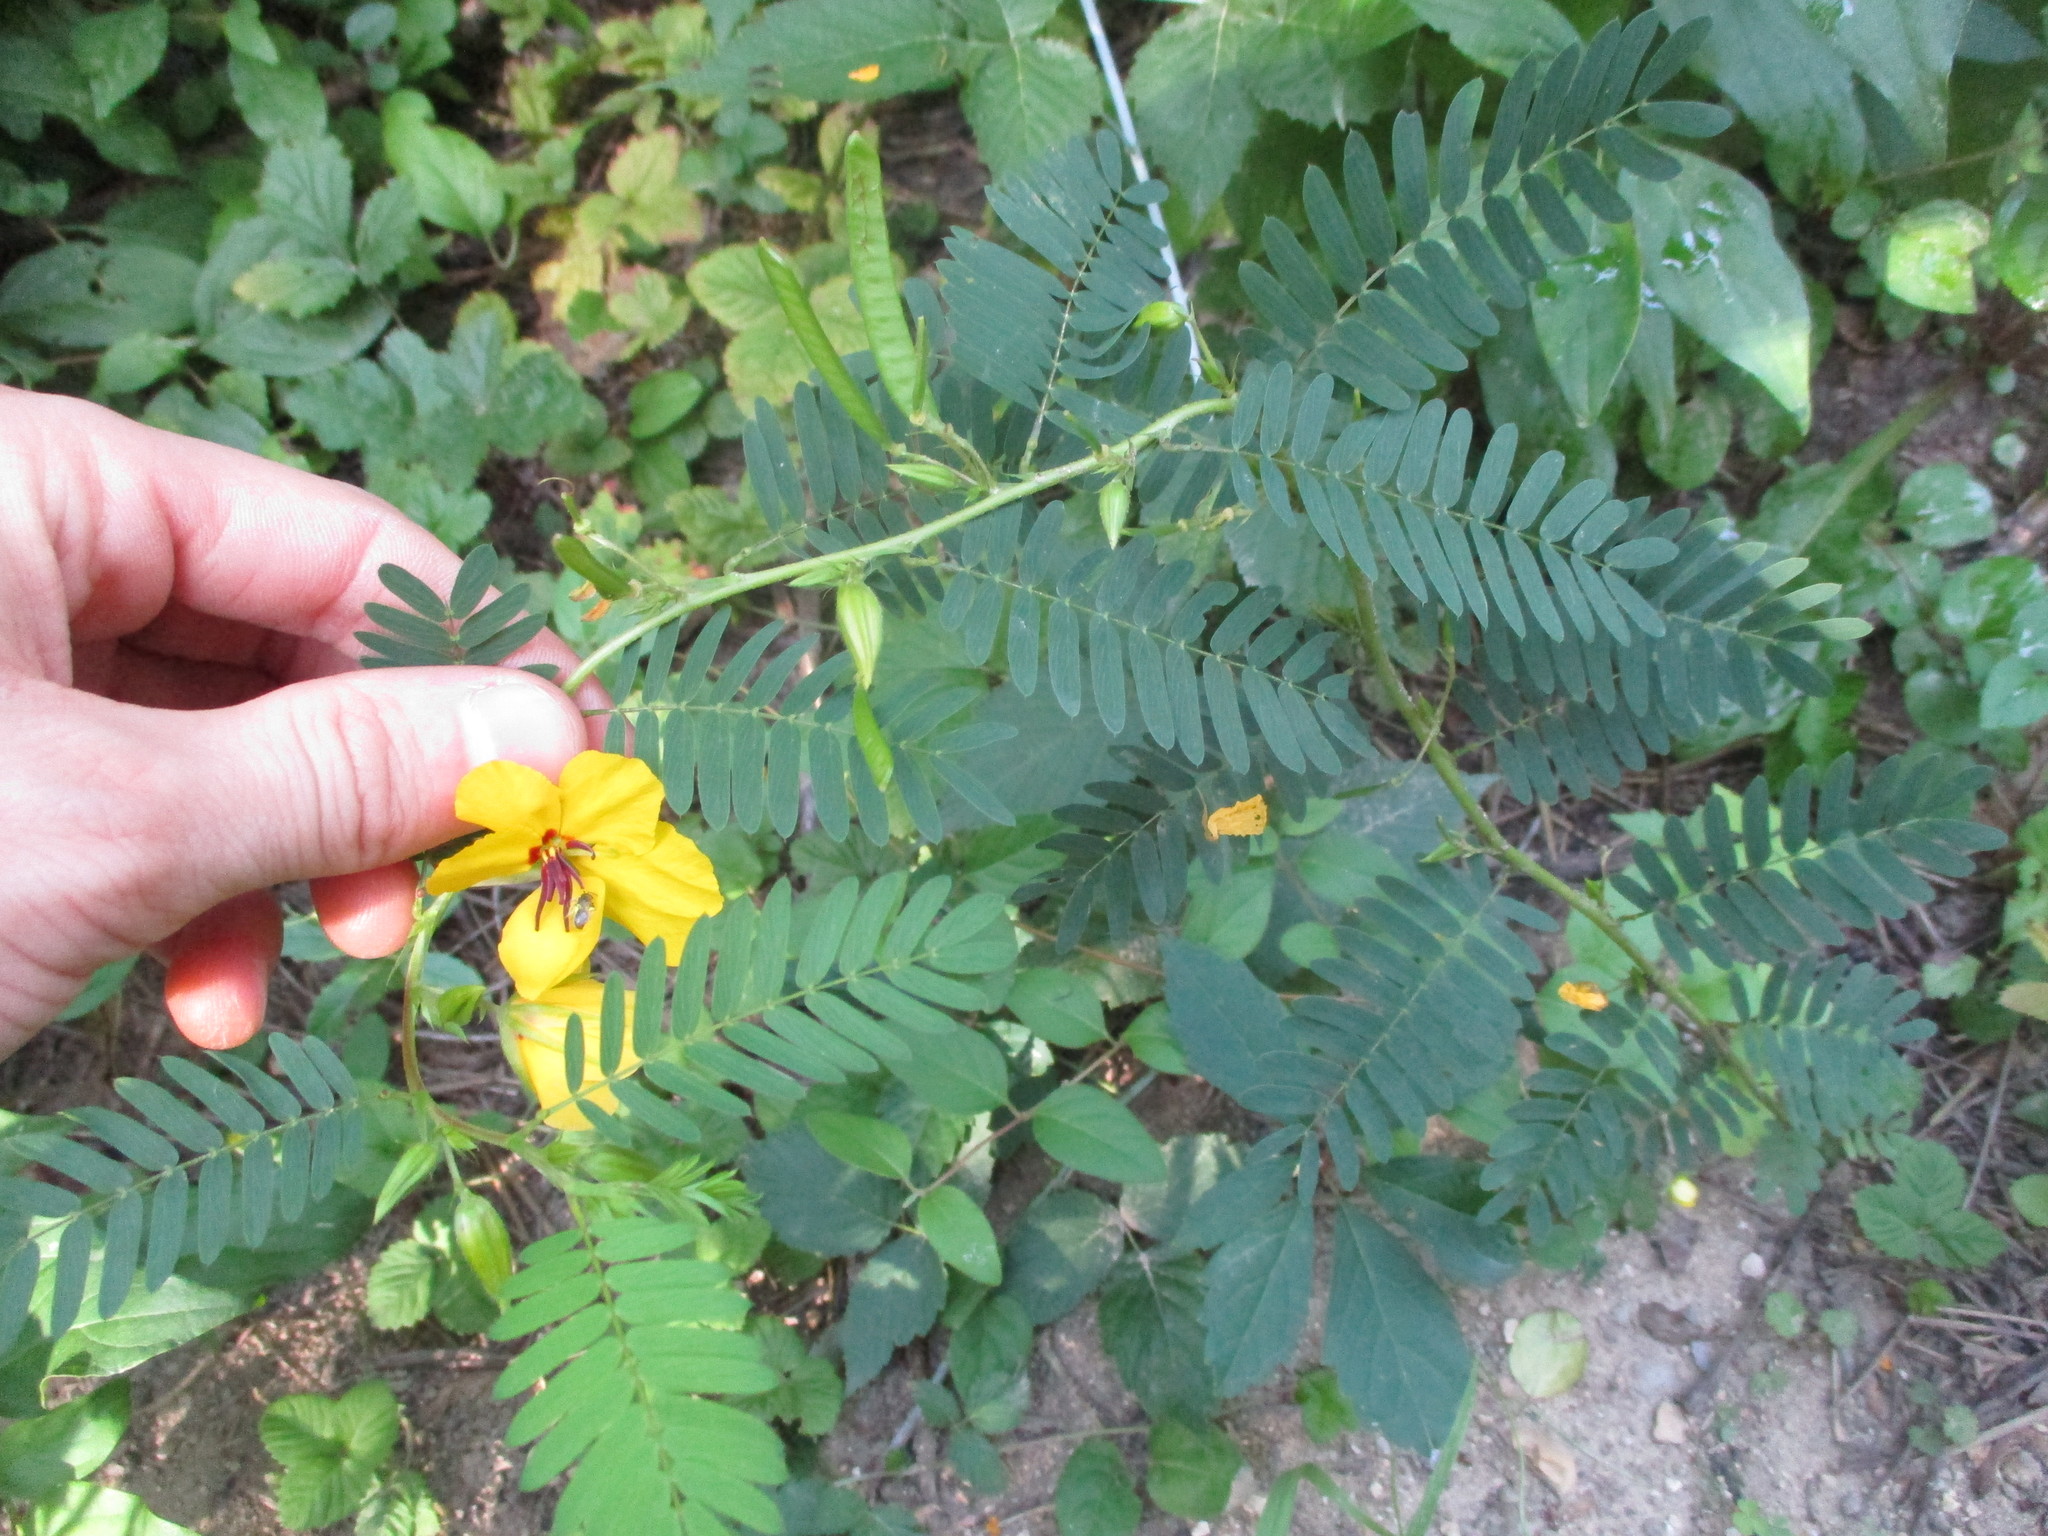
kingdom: Plantae
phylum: Tracheophyta
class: Magnoliopsida
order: Fabales
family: Fabaceae
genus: Chamaecrista
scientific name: Chamaecrista fasciculata
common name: Golden cassia
